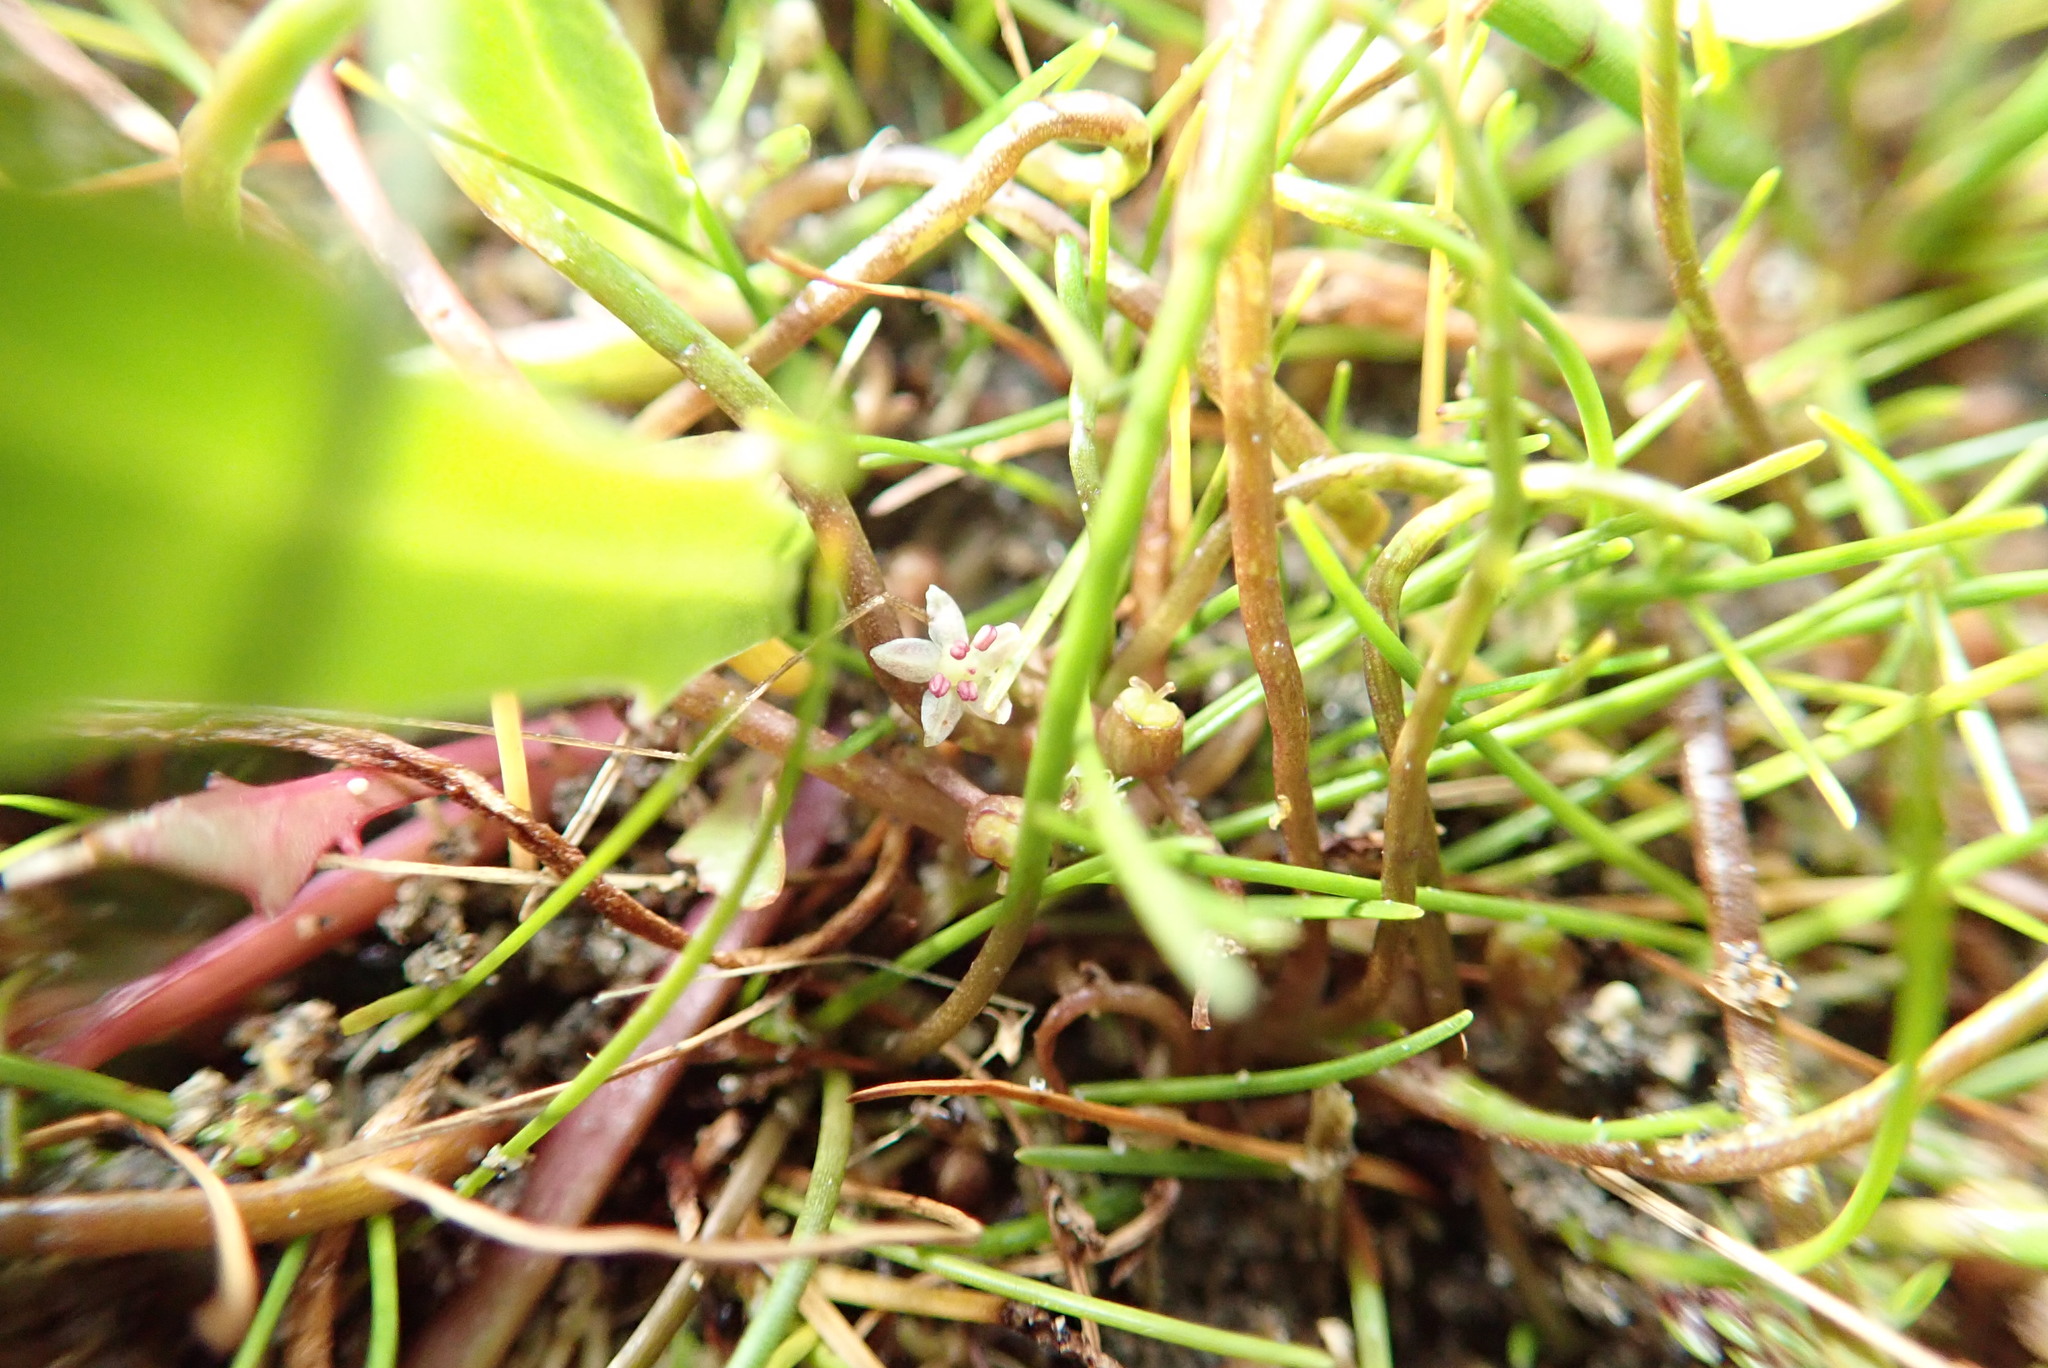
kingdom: Plantae
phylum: Tracheophyta
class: Magnoliopsida
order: Apiales
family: Apiaceae
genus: Lilaeopsis
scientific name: Lilaeopsis novae-zelandiae
